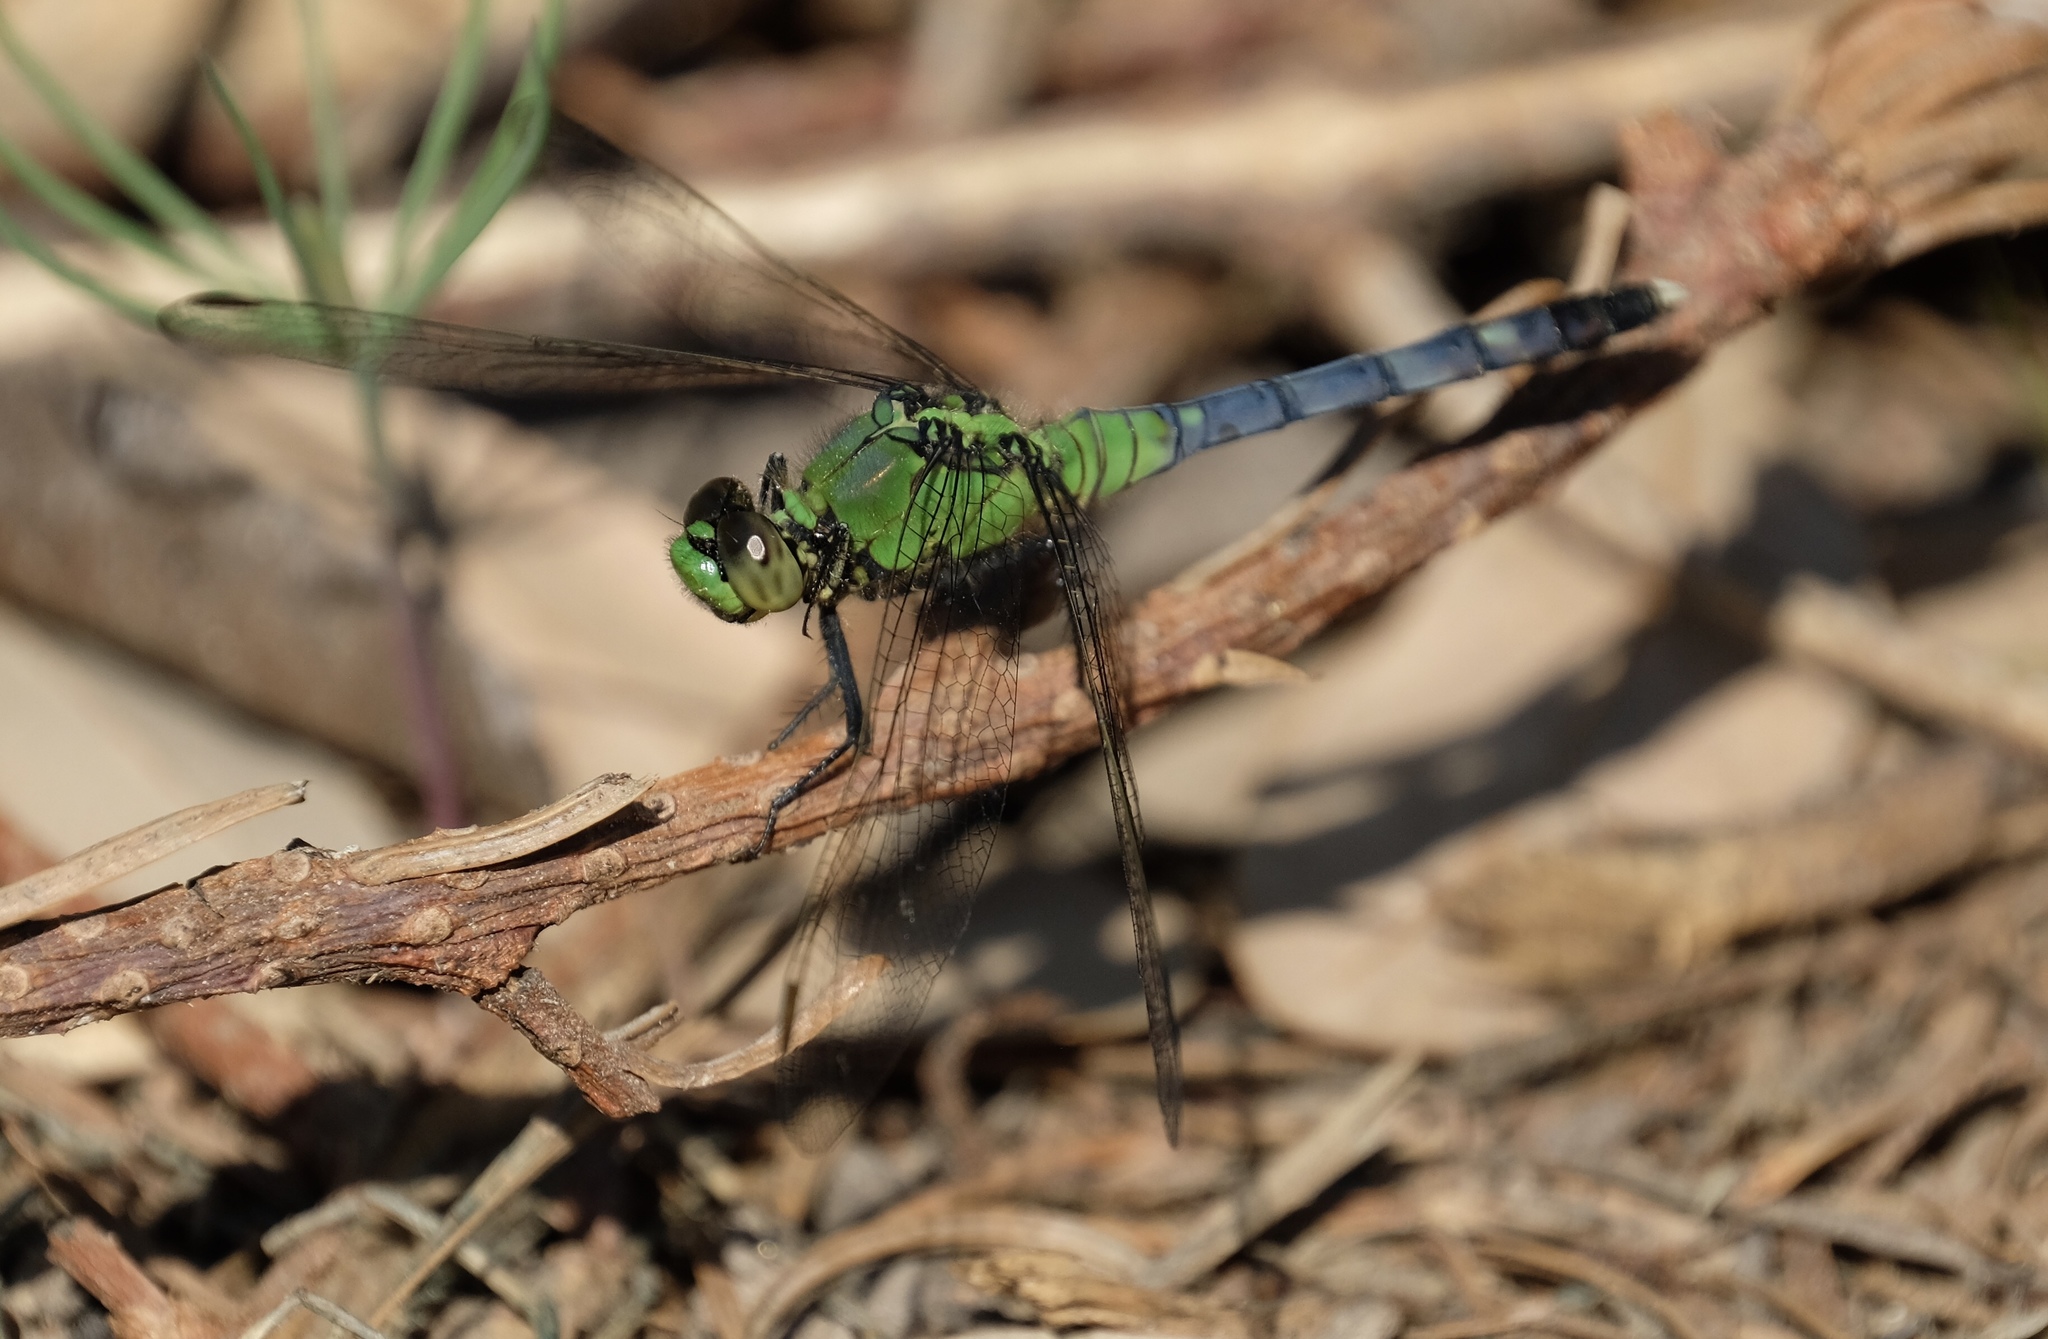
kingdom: Animalia
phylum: Arthropoda
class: Insecta
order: Odonata
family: Libellulidae
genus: Erythemis
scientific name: Erythemis simplicicollis
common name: Eastern pondhawk
